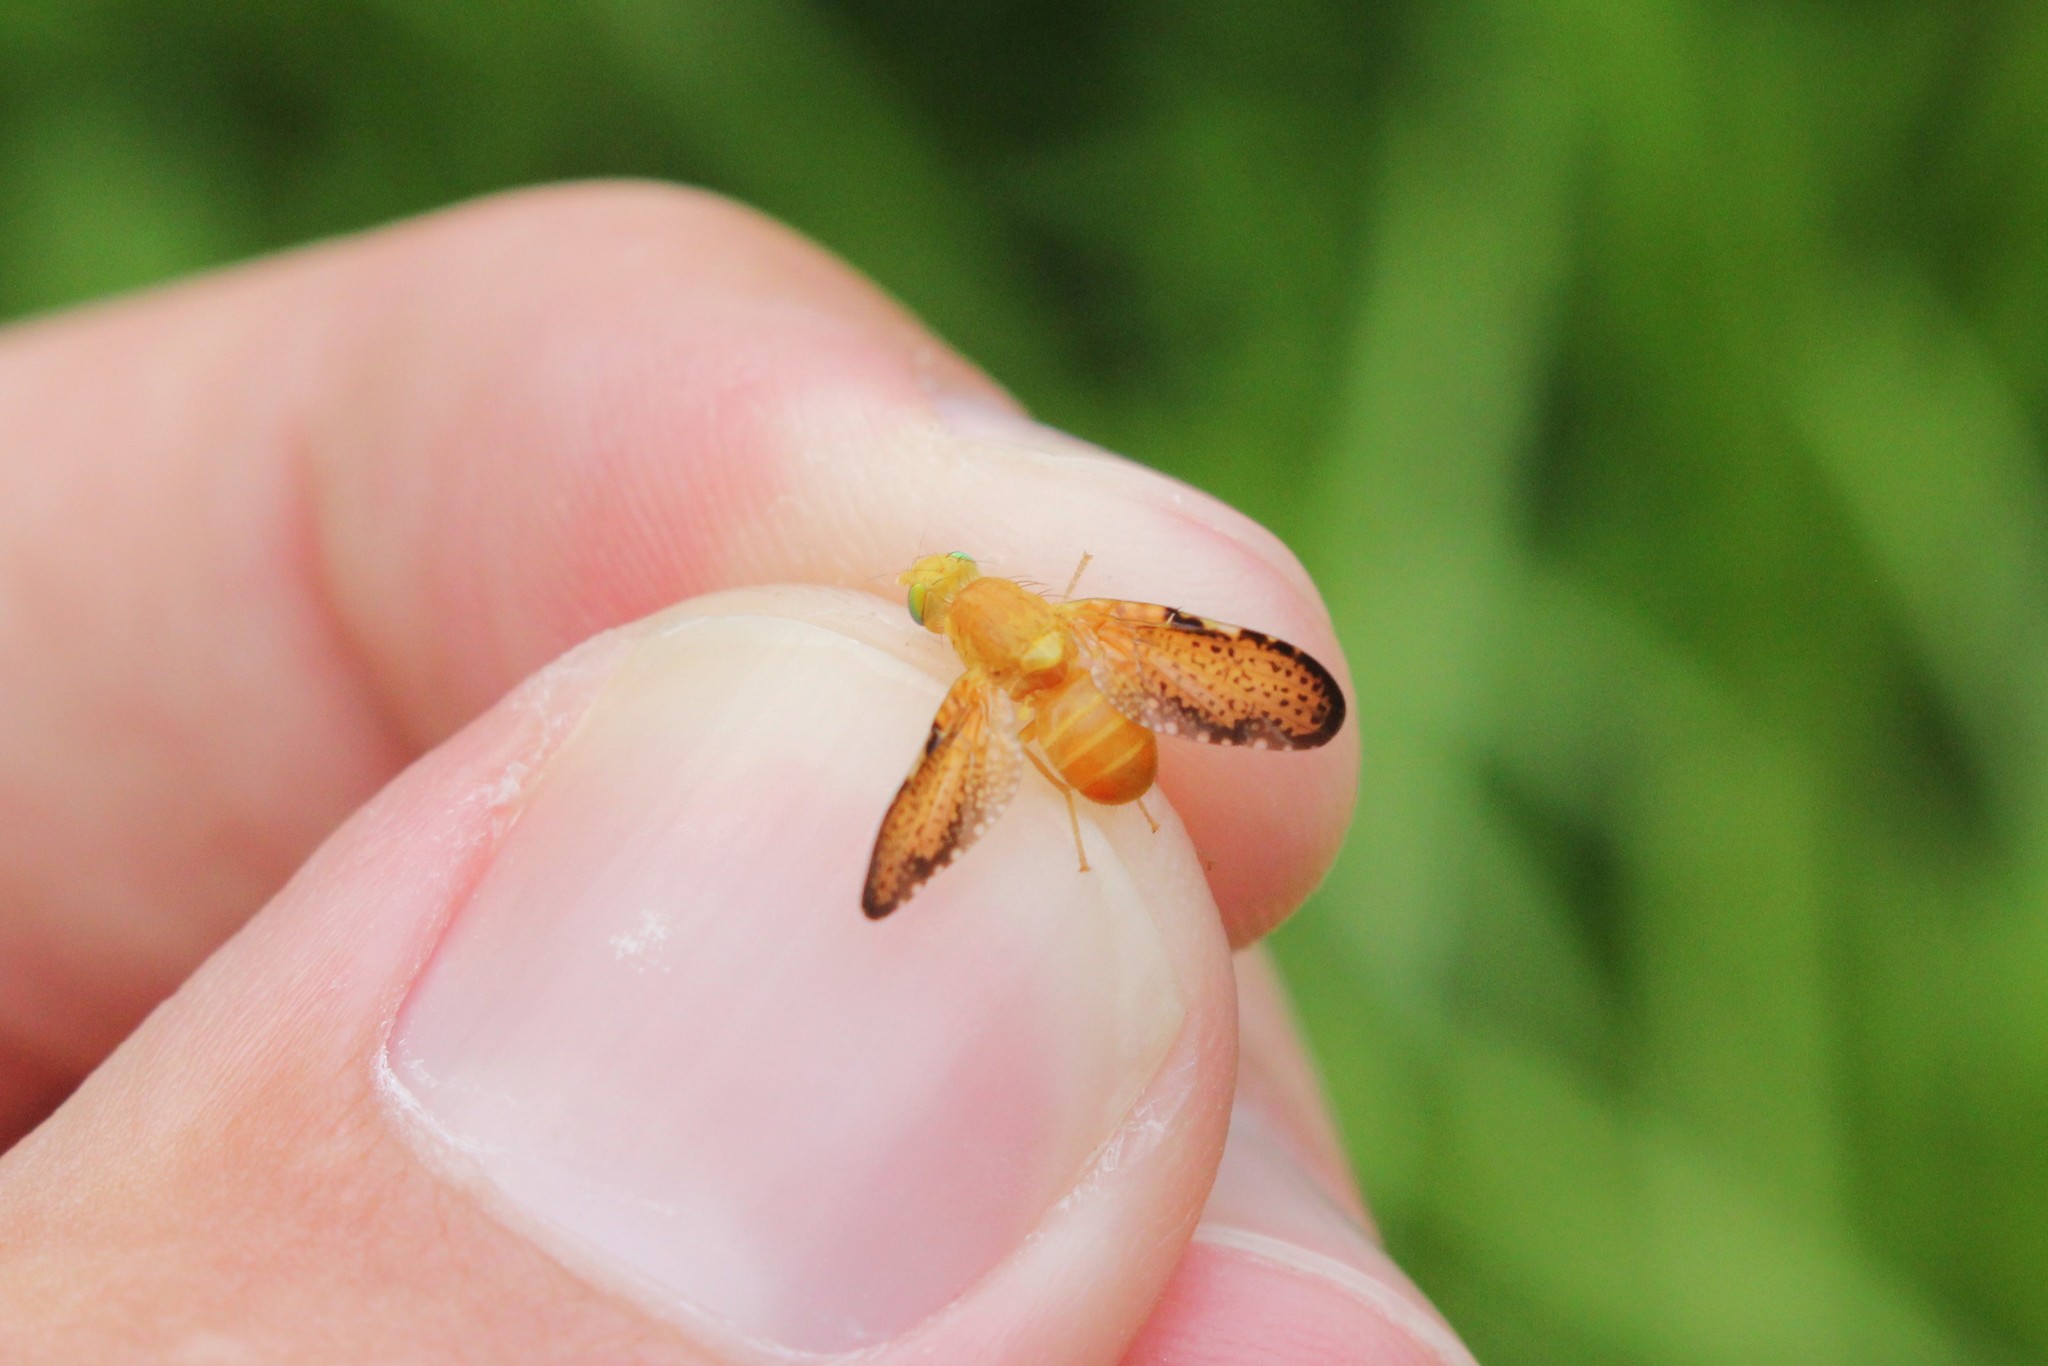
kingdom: Animalia
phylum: Arthropoda
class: Insecta
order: Diptera
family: Tephritidae
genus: Icterica
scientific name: Icterica seriata
